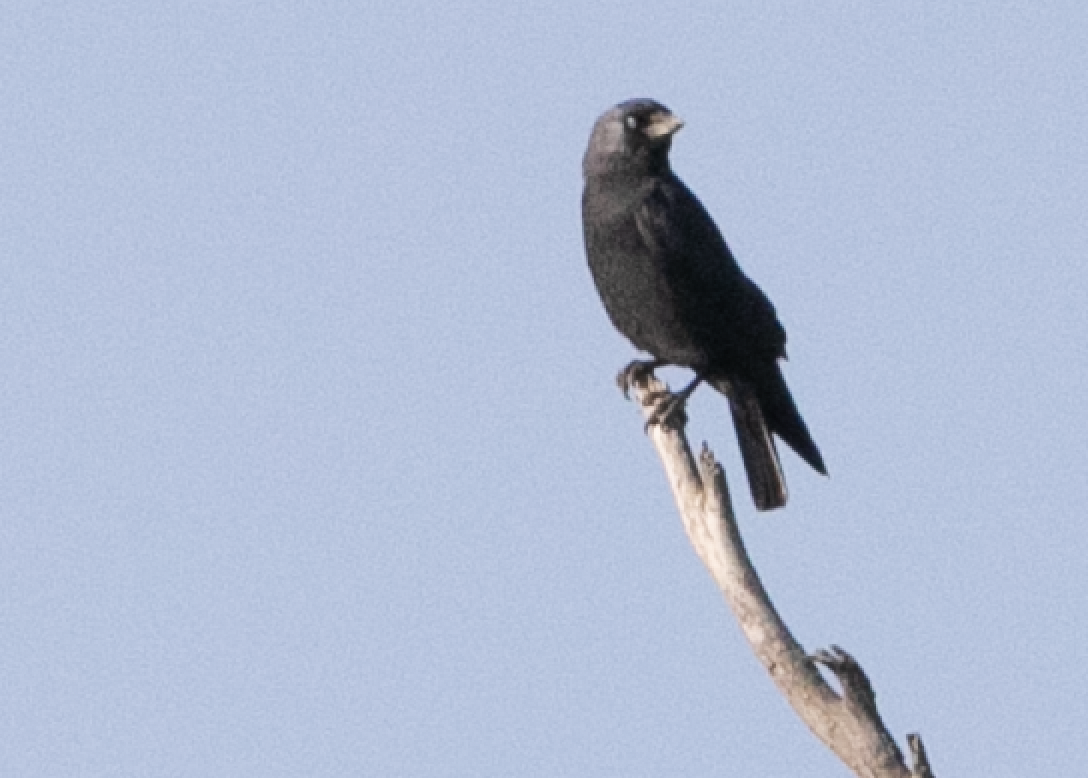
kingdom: Animalia
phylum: Chordata
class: Aves
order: Passeriformes
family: Corvidae
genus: Coloeus
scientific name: Coloeus monedula
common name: Western jackdaw
